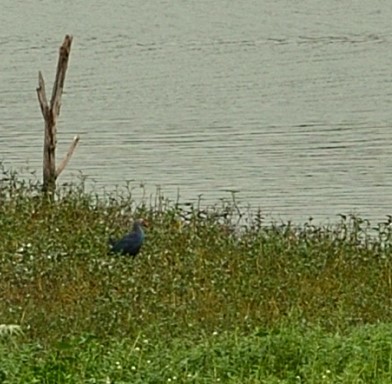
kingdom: Animalia
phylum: Chordata
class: Aves
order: Gruiformes
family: Rallidae
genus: Porphyrio
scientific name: Porphyrio porphyrio
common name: Purple swamphen
